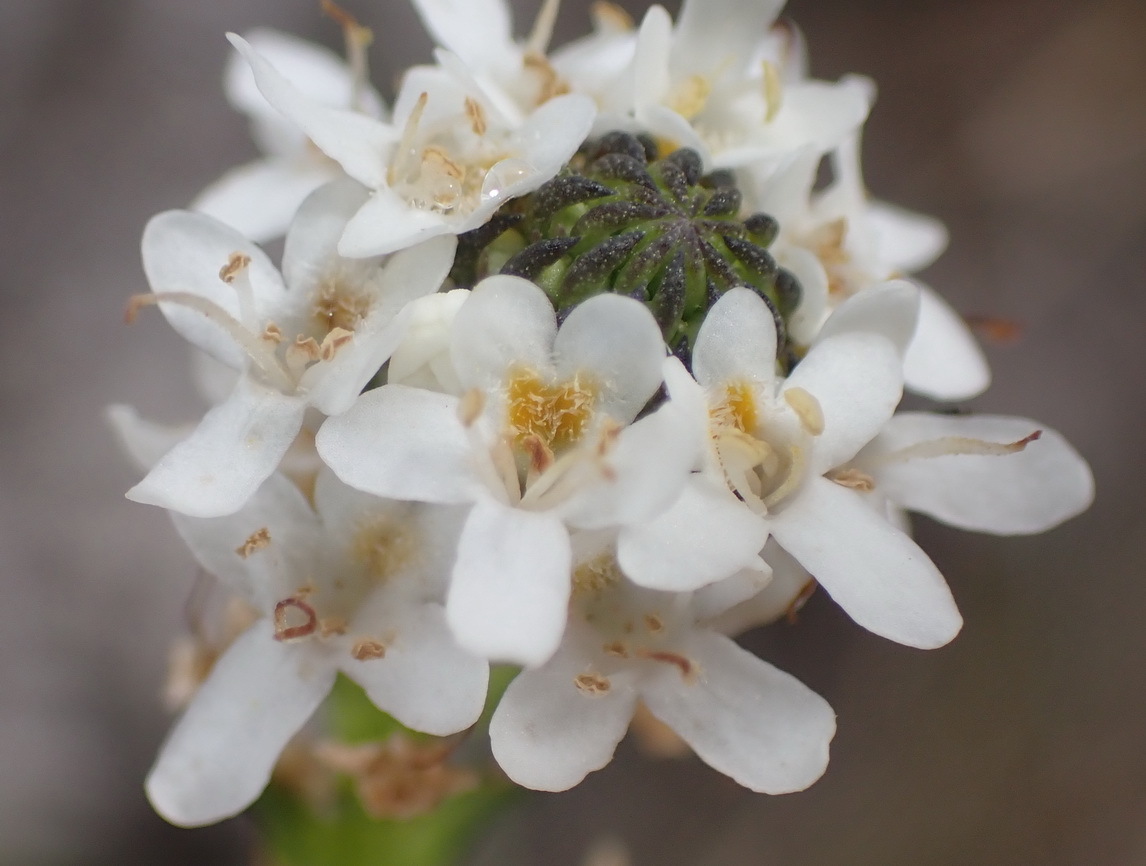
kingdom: Plantae
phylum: Tracheophyta
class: Magnoliopsida
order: Lamiales
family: Scrophulariaceae
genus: Pseudoselago
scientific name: Pseudoselago outeniquensis
